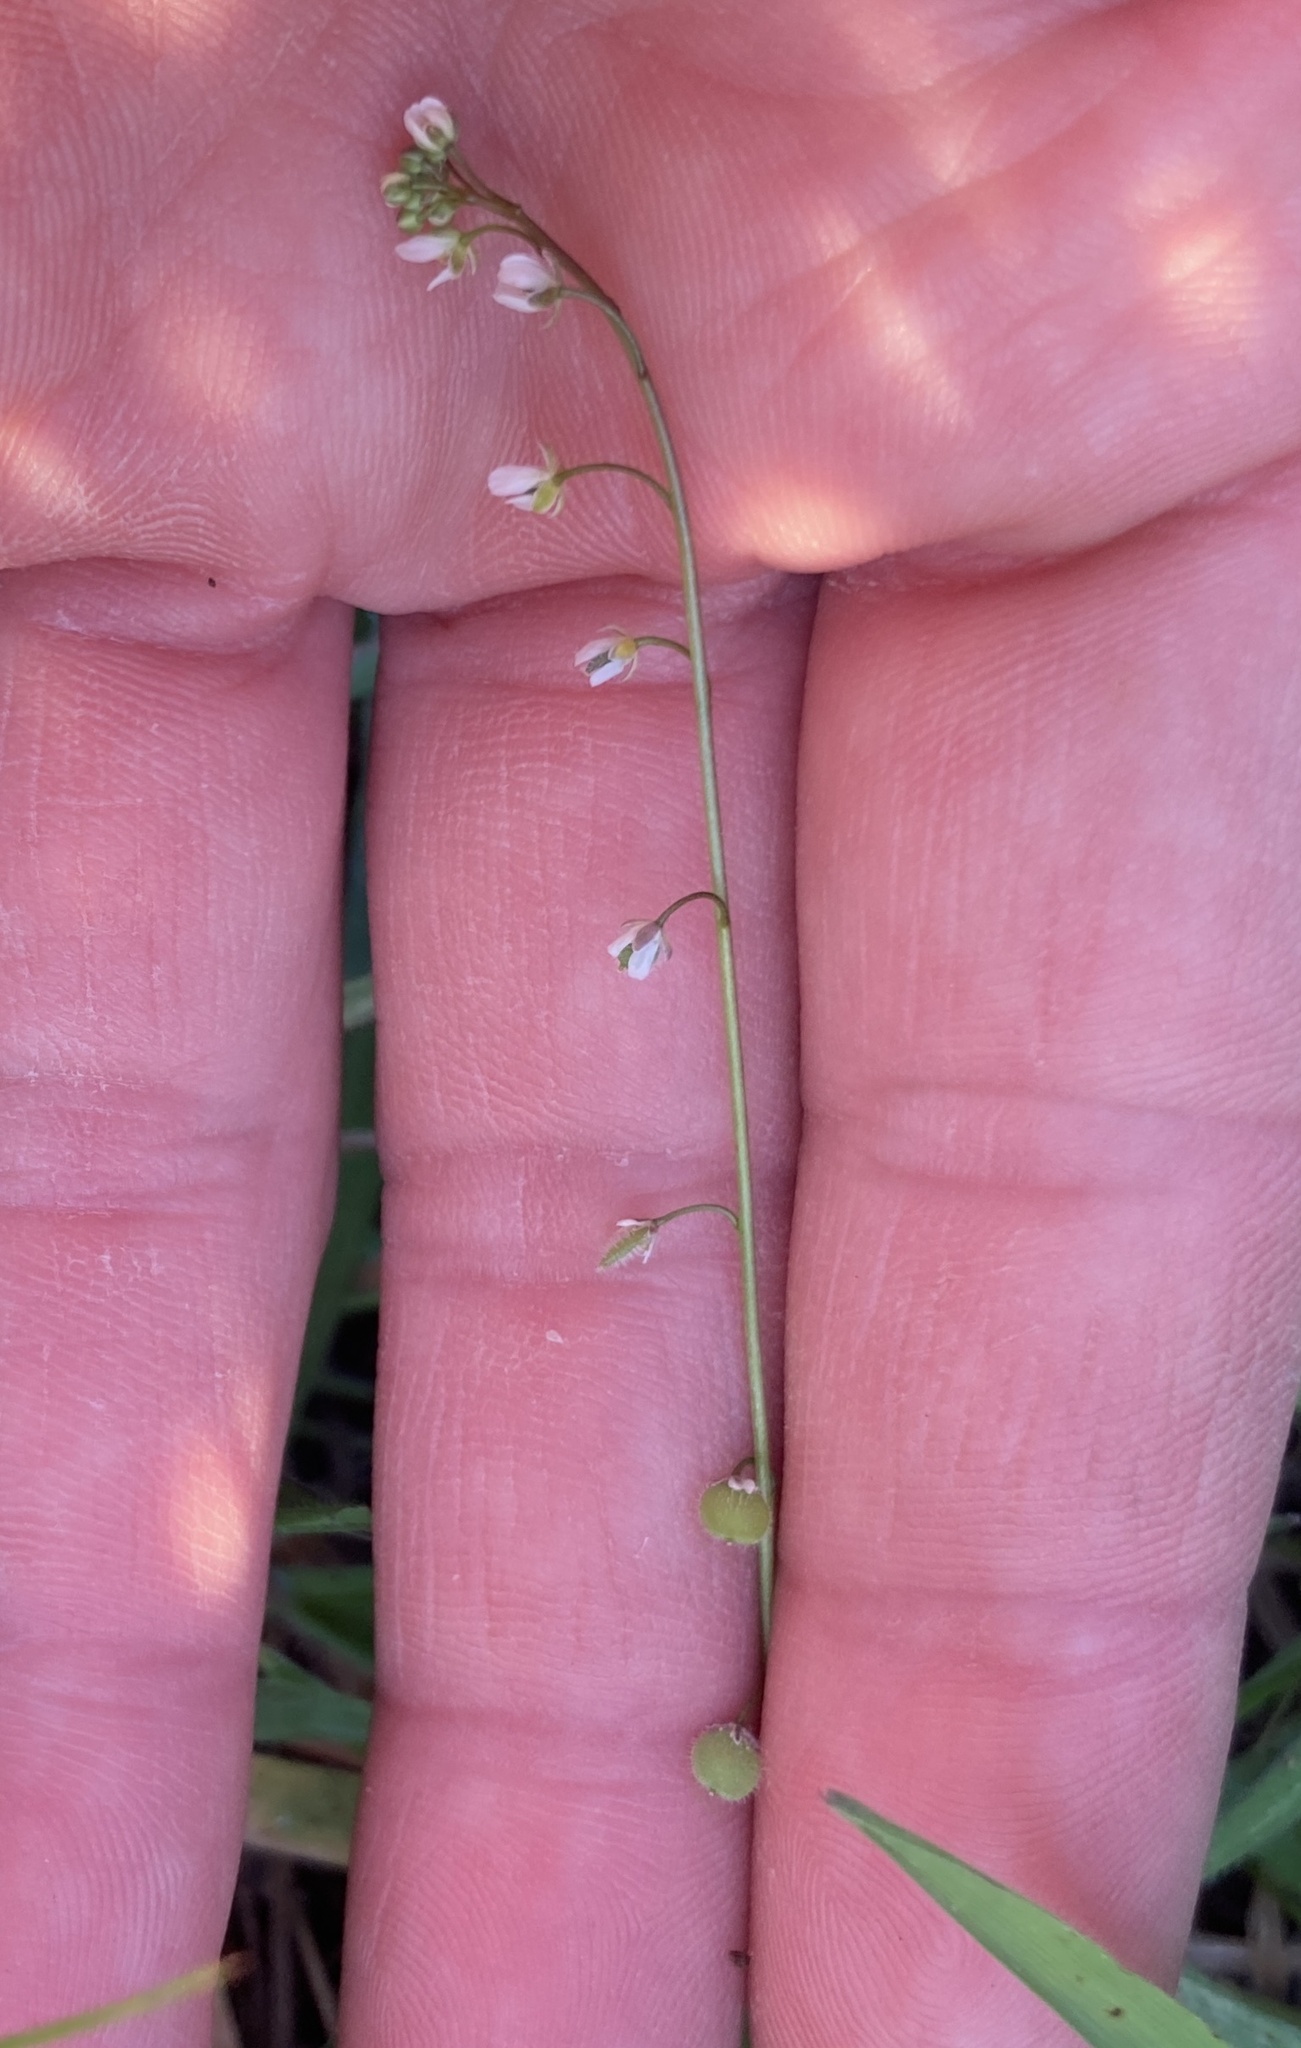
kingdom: Plantae
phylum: Tracheophyta
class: Magnoliopsida
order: Brassicales
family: Brassicaceae
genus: Athysanus
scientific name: Athysanus pusillus
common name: Common sandweed
